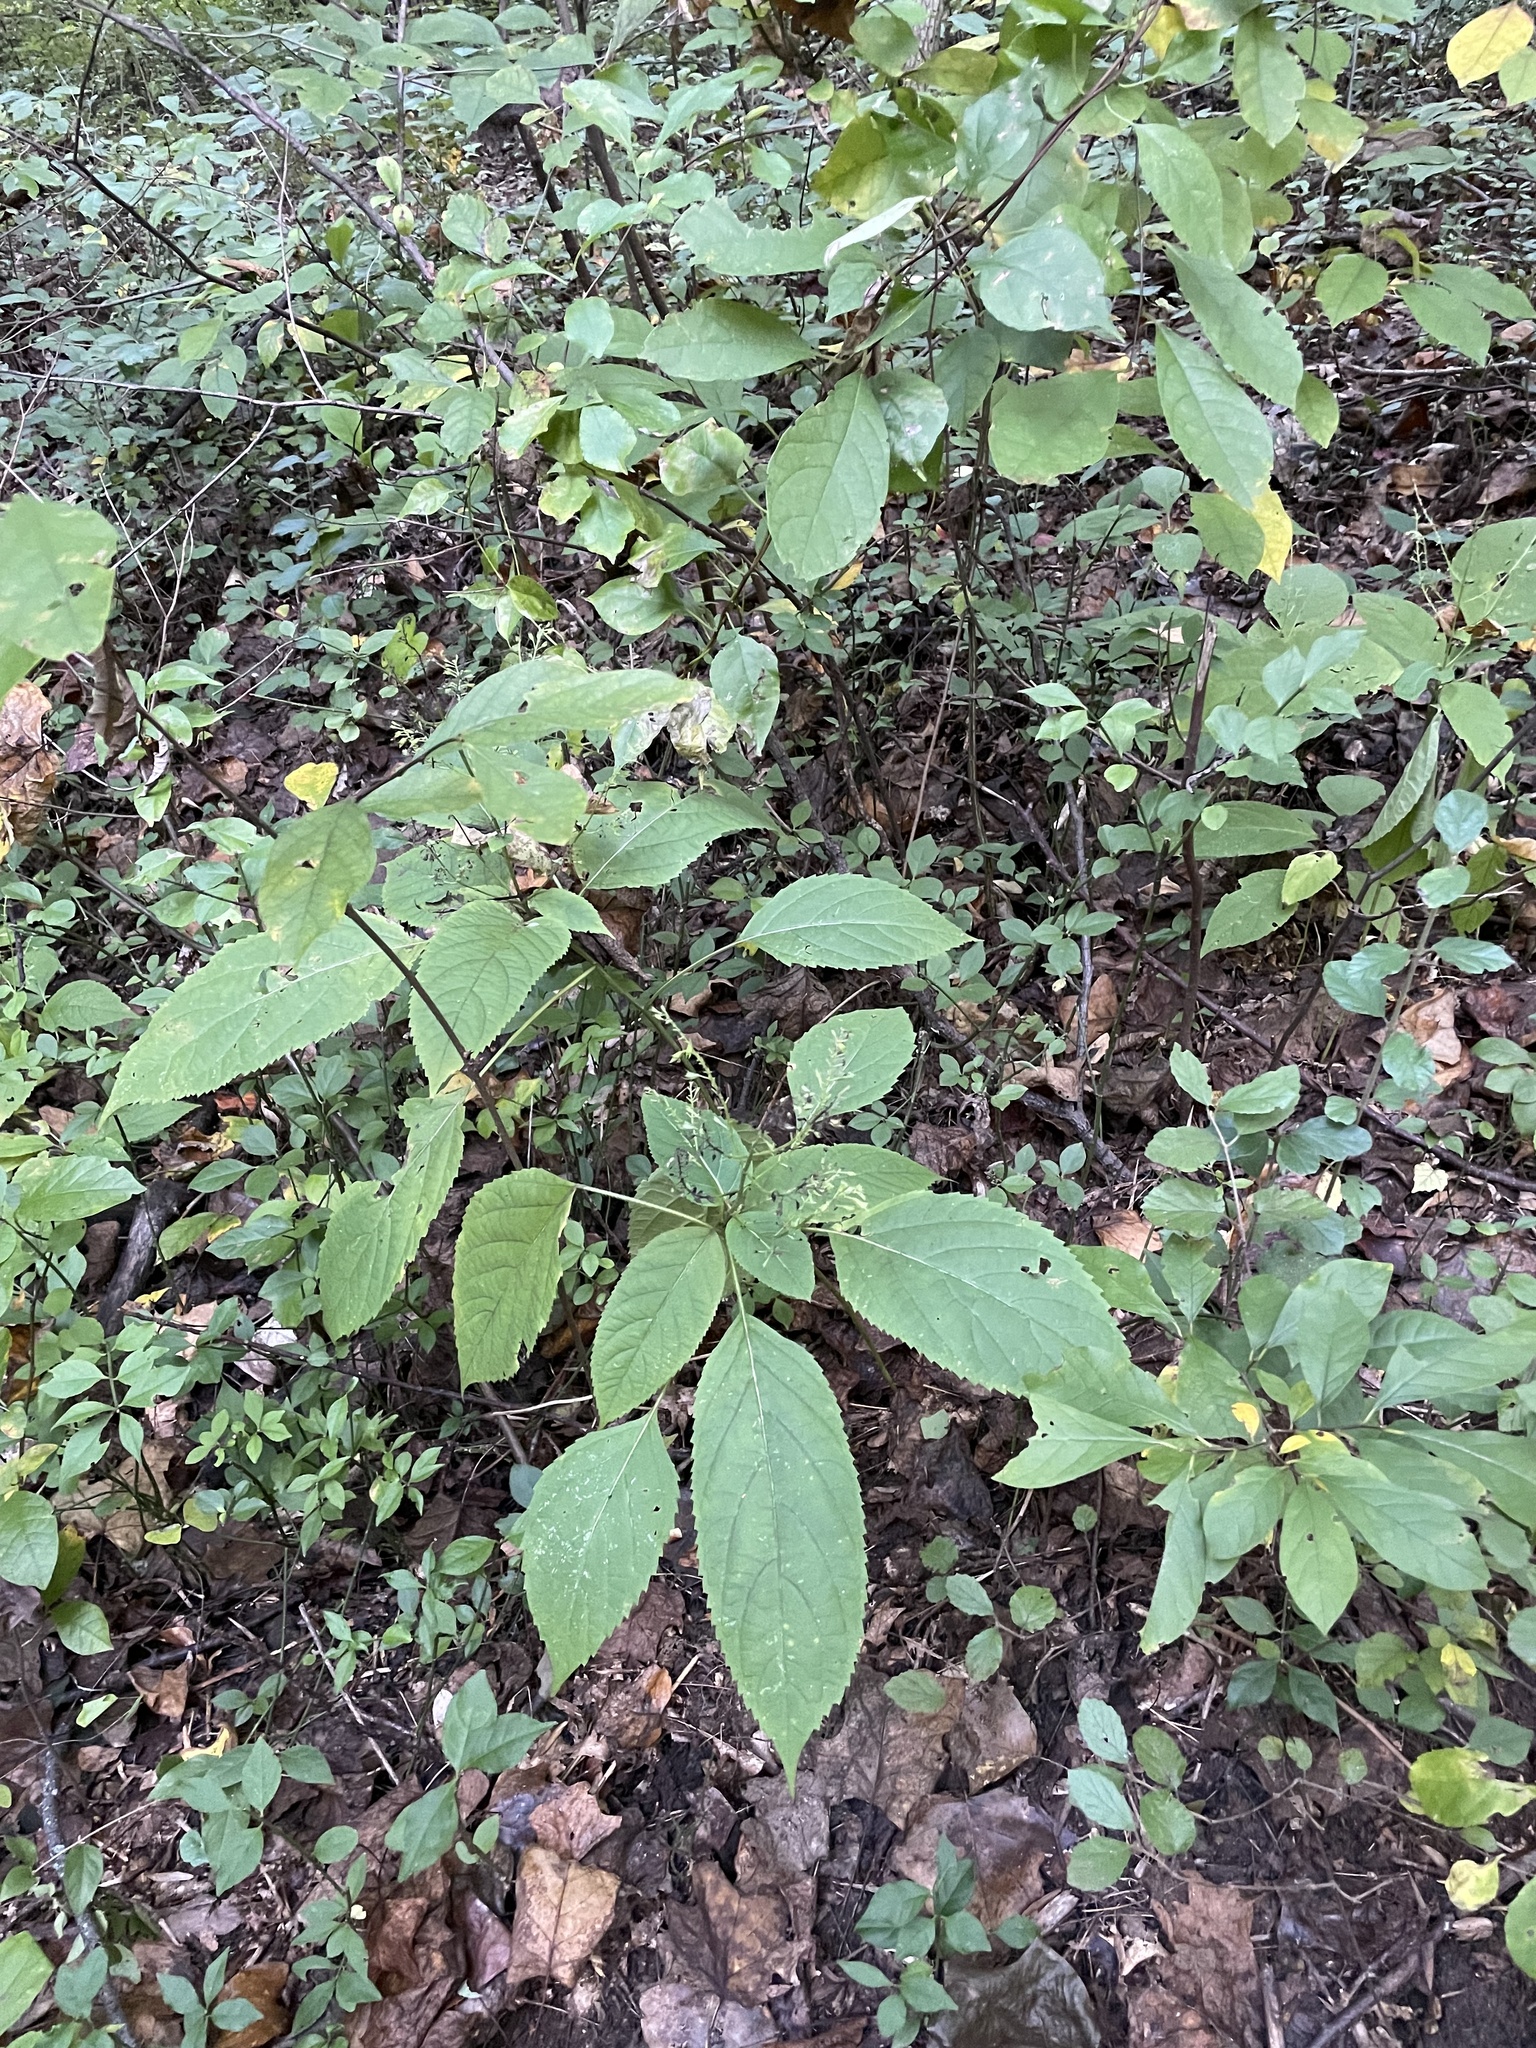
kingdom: Plantae
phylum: Tracheophyta
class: Magnoliopsida
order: Lamiales
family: Lamiaceae
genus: Collinsonia
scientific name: Collinsonia canadensis
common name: Northern horsebalm
